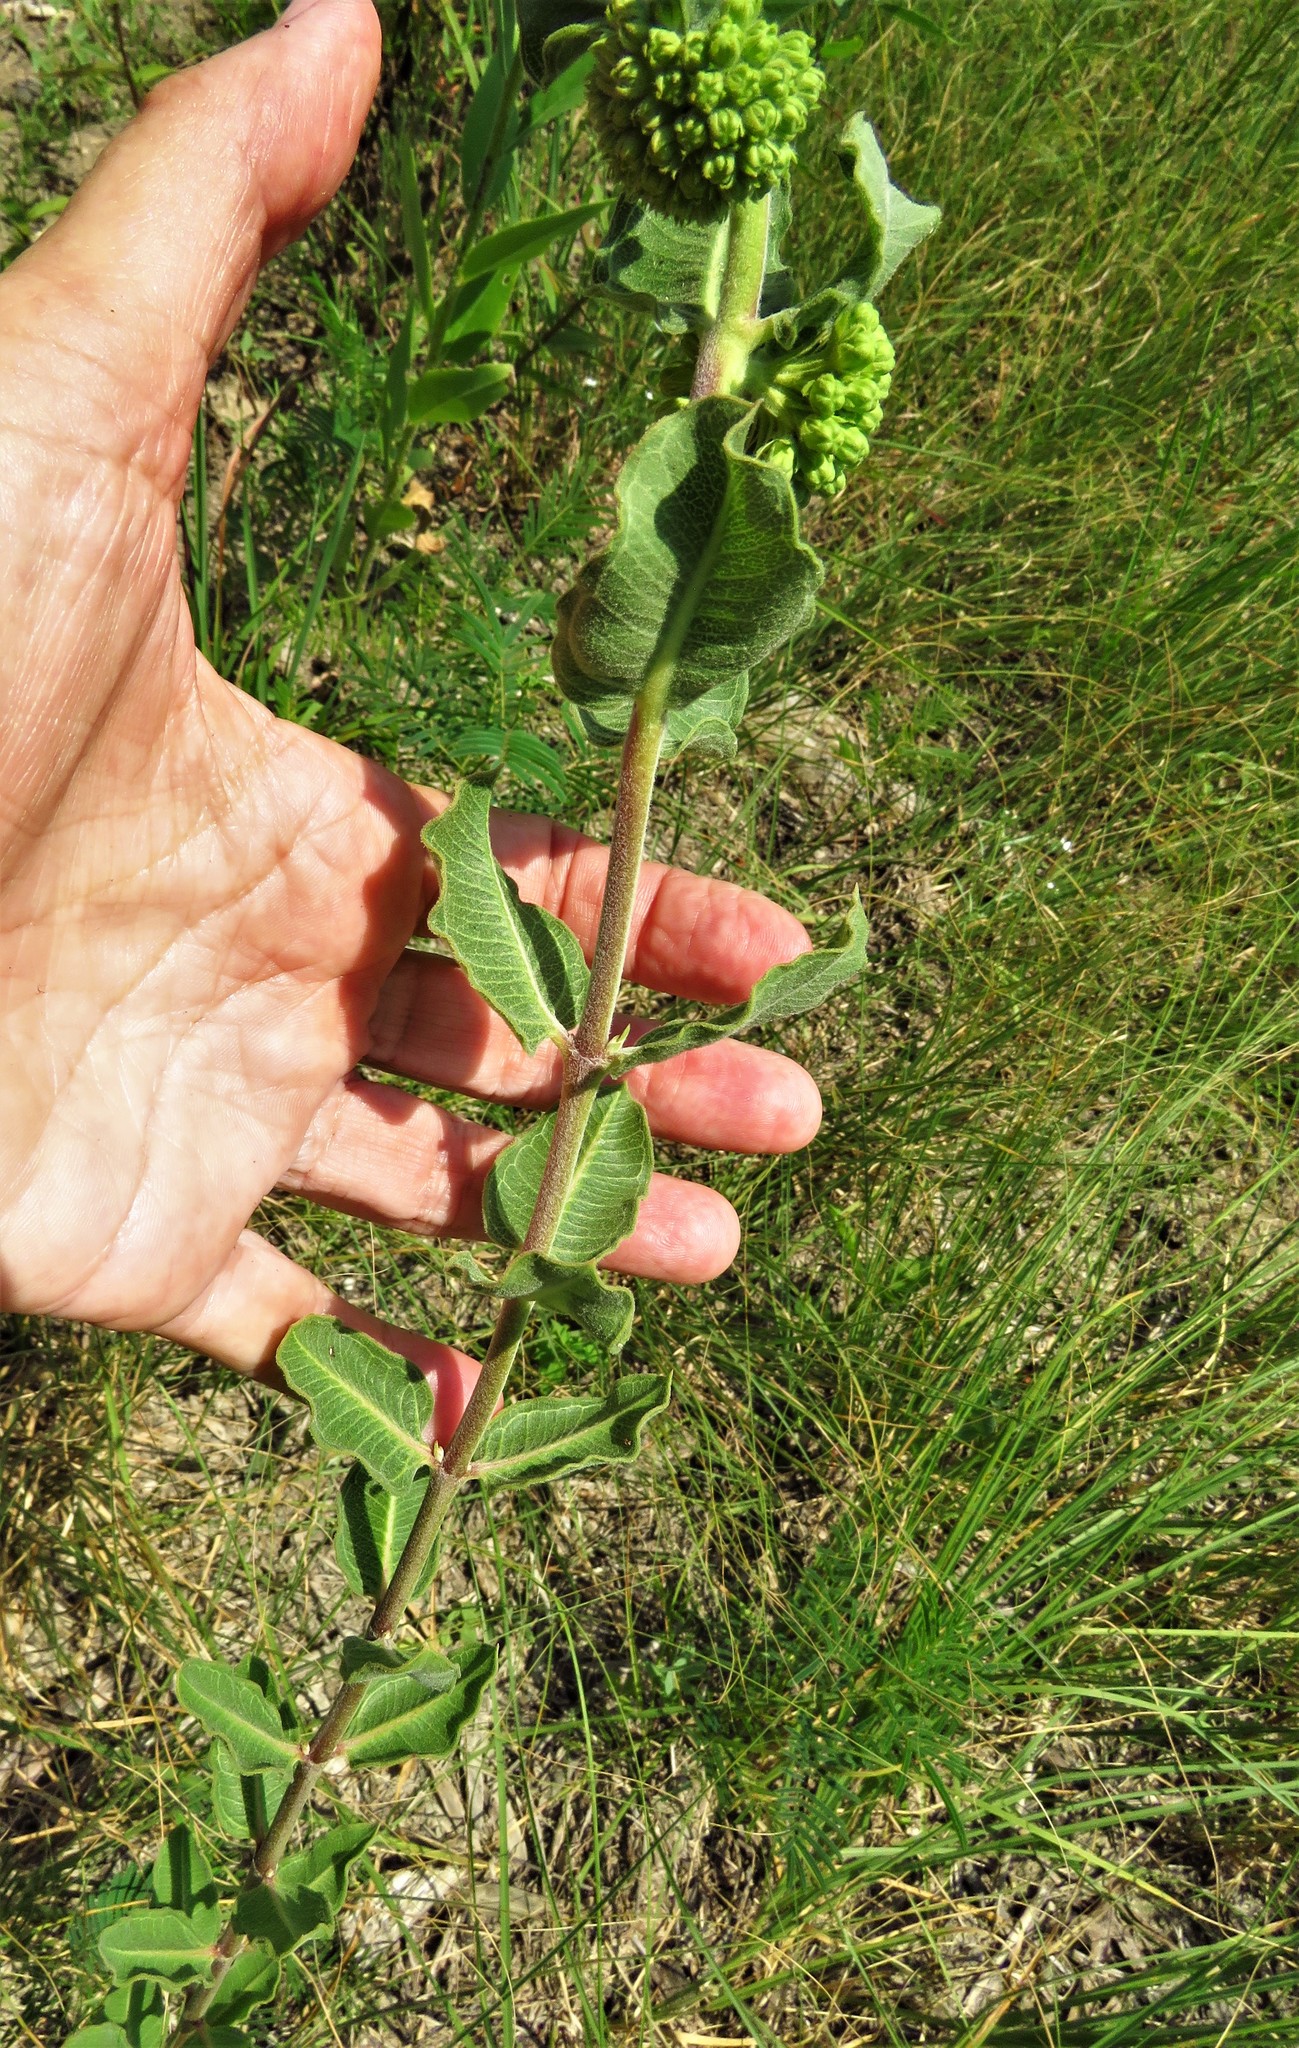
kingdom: Plantae
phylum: Tracheophyta
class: Magnoliopsida
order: Gentianales
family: Apocynaceae
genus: Asclepias
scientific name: Asclepias viridiflora
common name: Green comet milkweed
